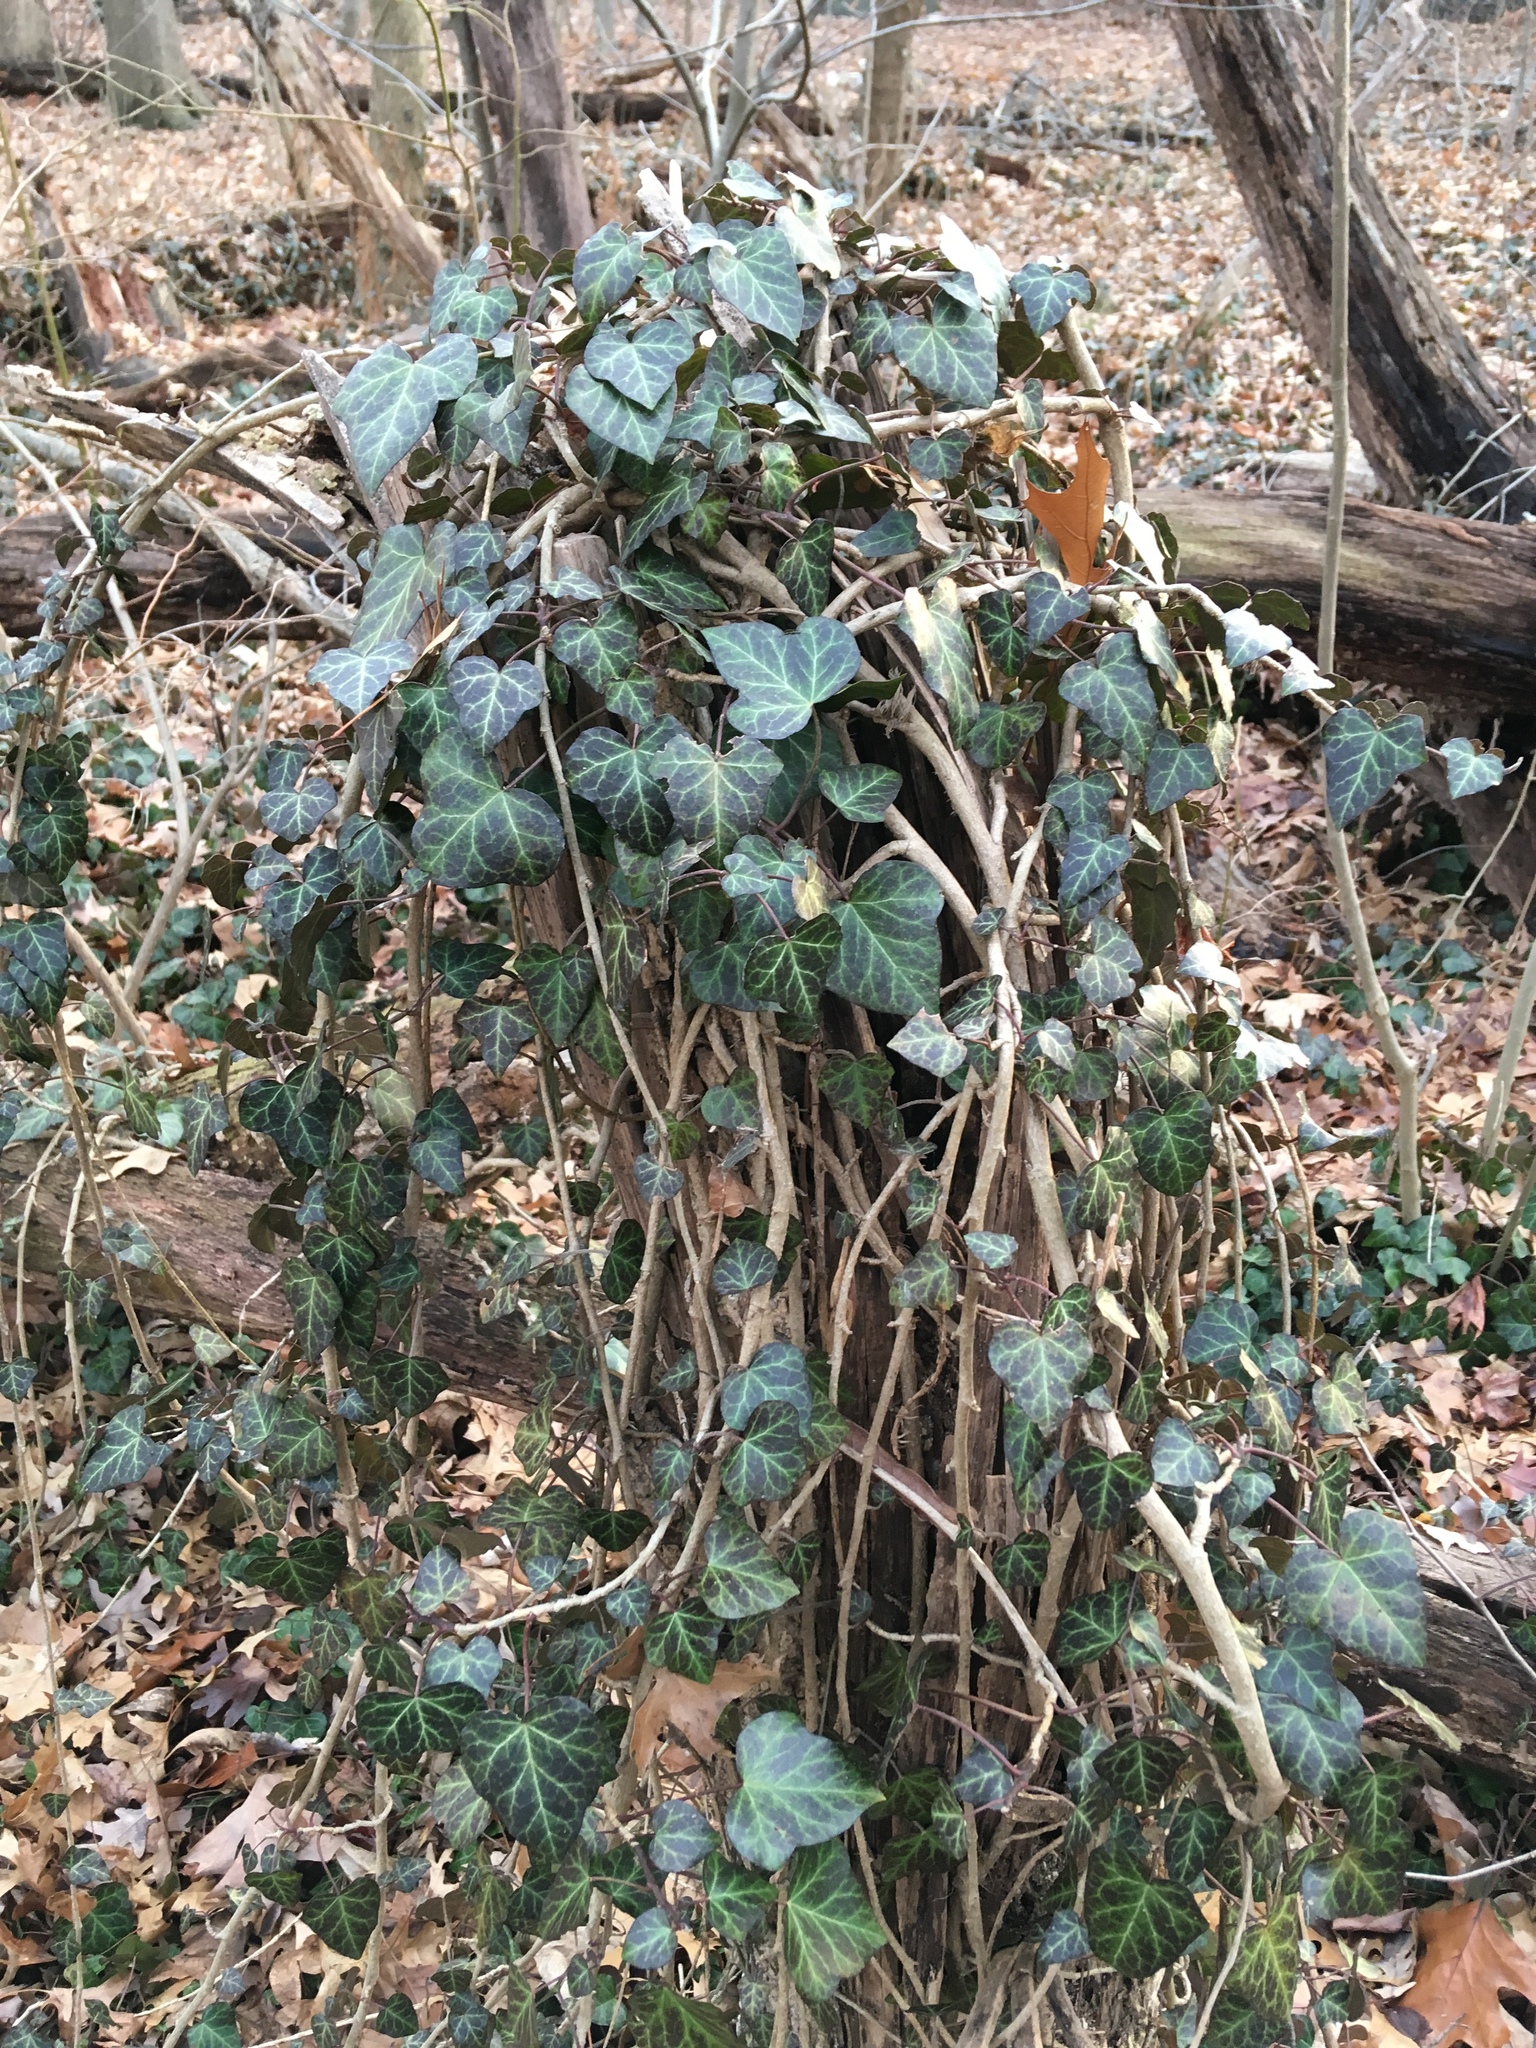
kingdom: Plantae
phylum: Tracheophyta
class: Magnoliopsida
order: Apiales
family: Araliaceae
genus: Hedera
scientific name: Hedera helix
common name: Ivy
